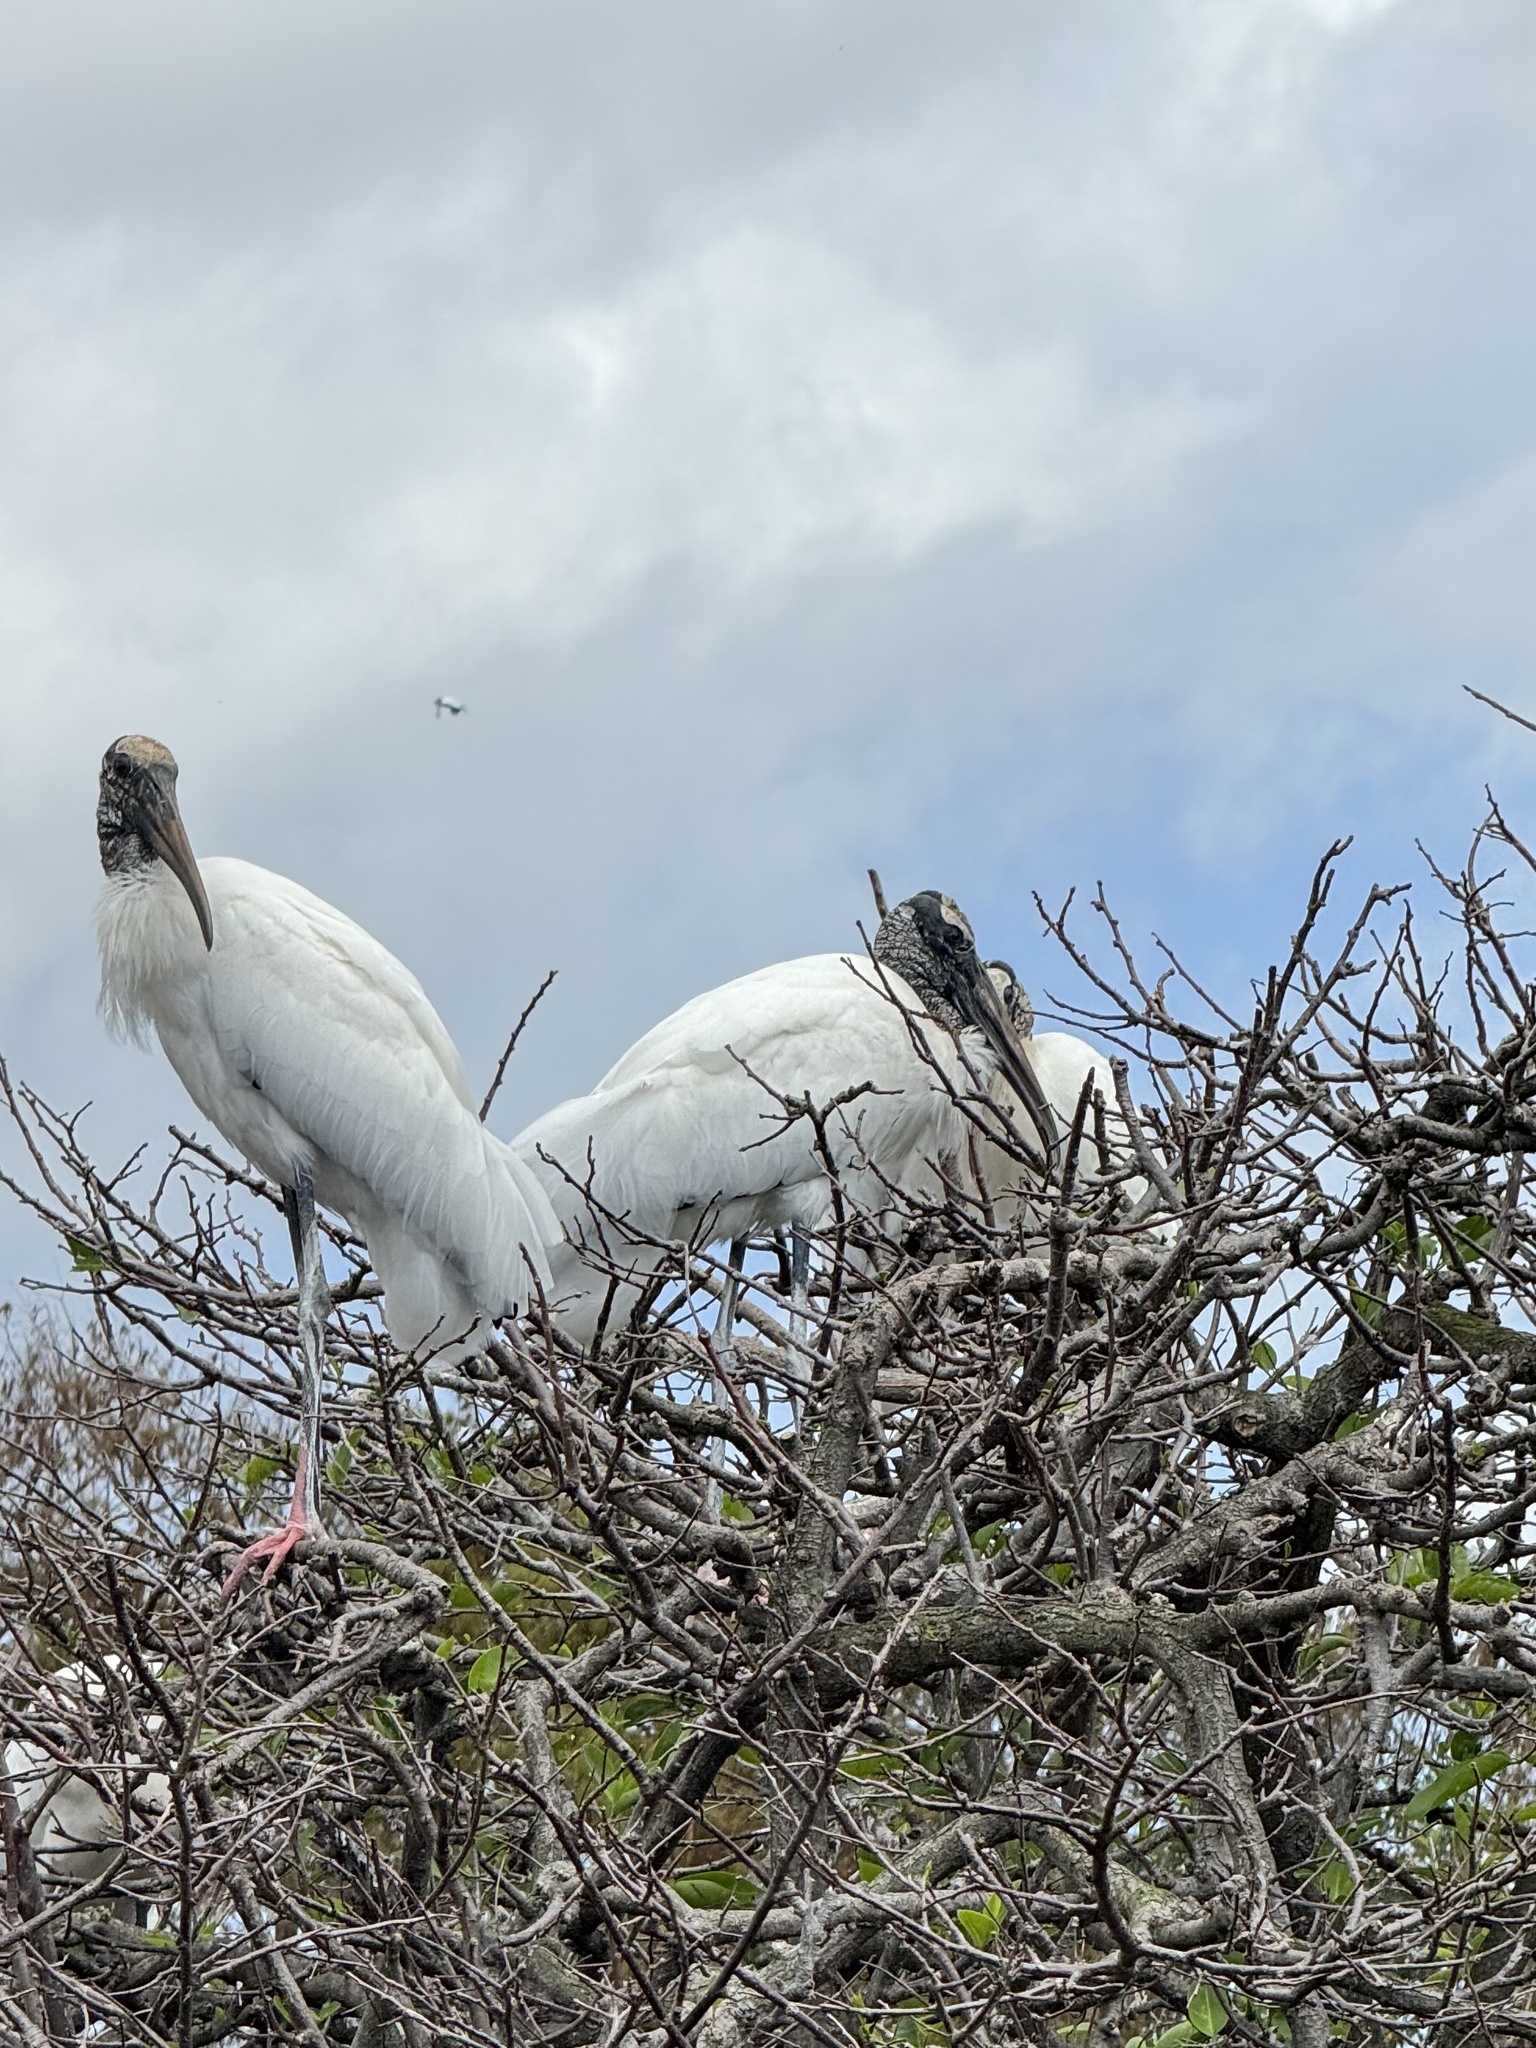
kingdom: Animalia
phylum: Chordata
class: Aves
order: Ciconiiformes
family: Ciconiidae
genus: Mycteria
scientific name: Mycteria americana
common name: Wood stork
